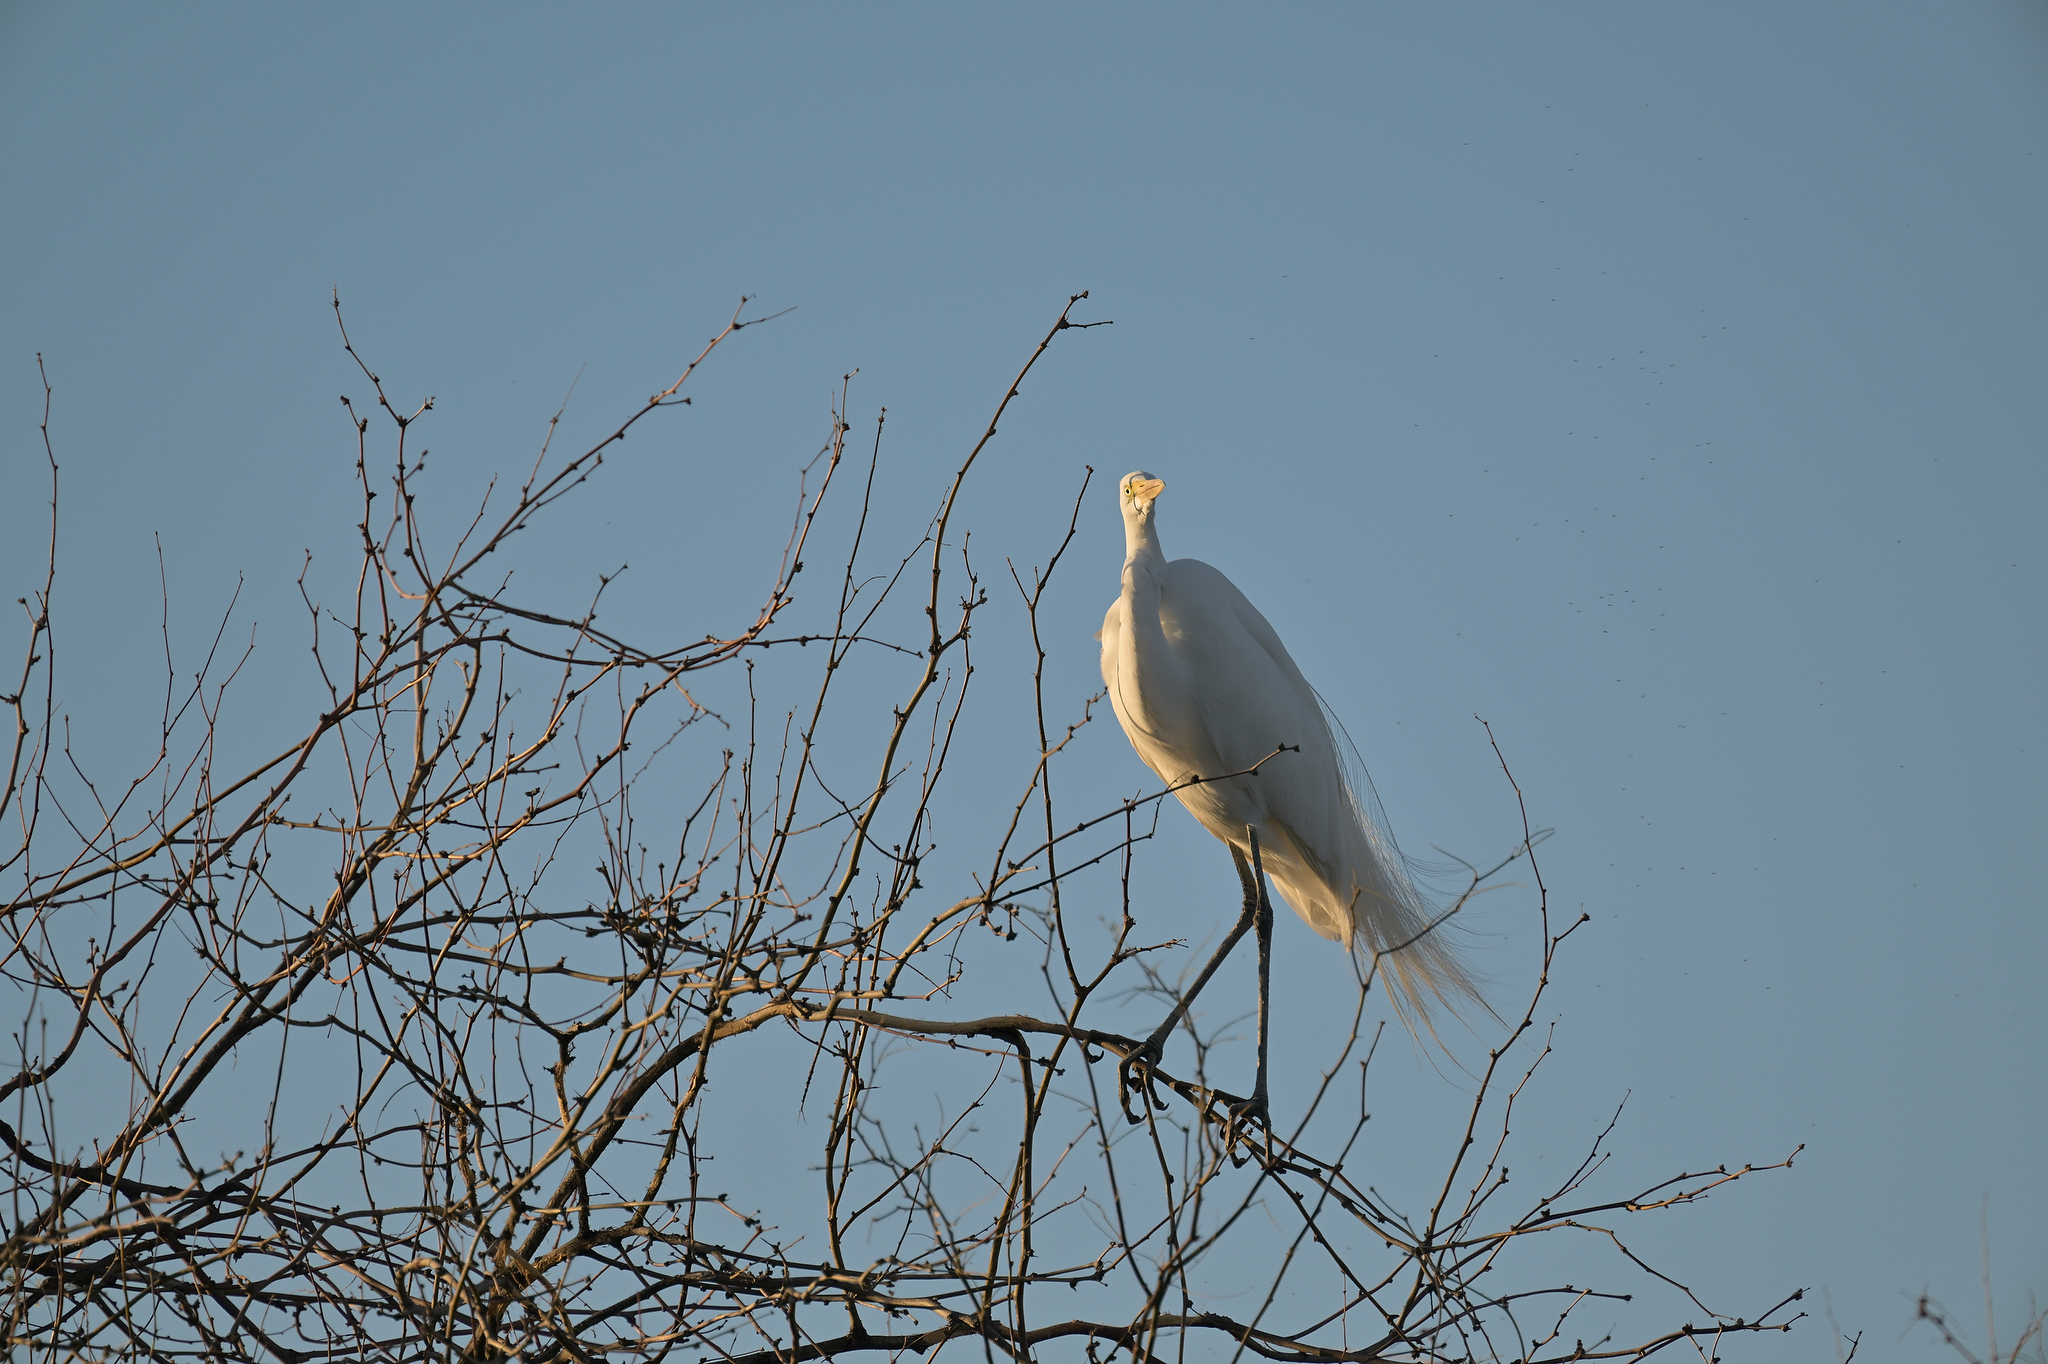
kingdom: Animalia
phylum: Chordata
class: Aves
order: Pelecaniformes
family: Ardeidae
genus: Ardea
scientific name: Ardea alba
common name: Great egret
